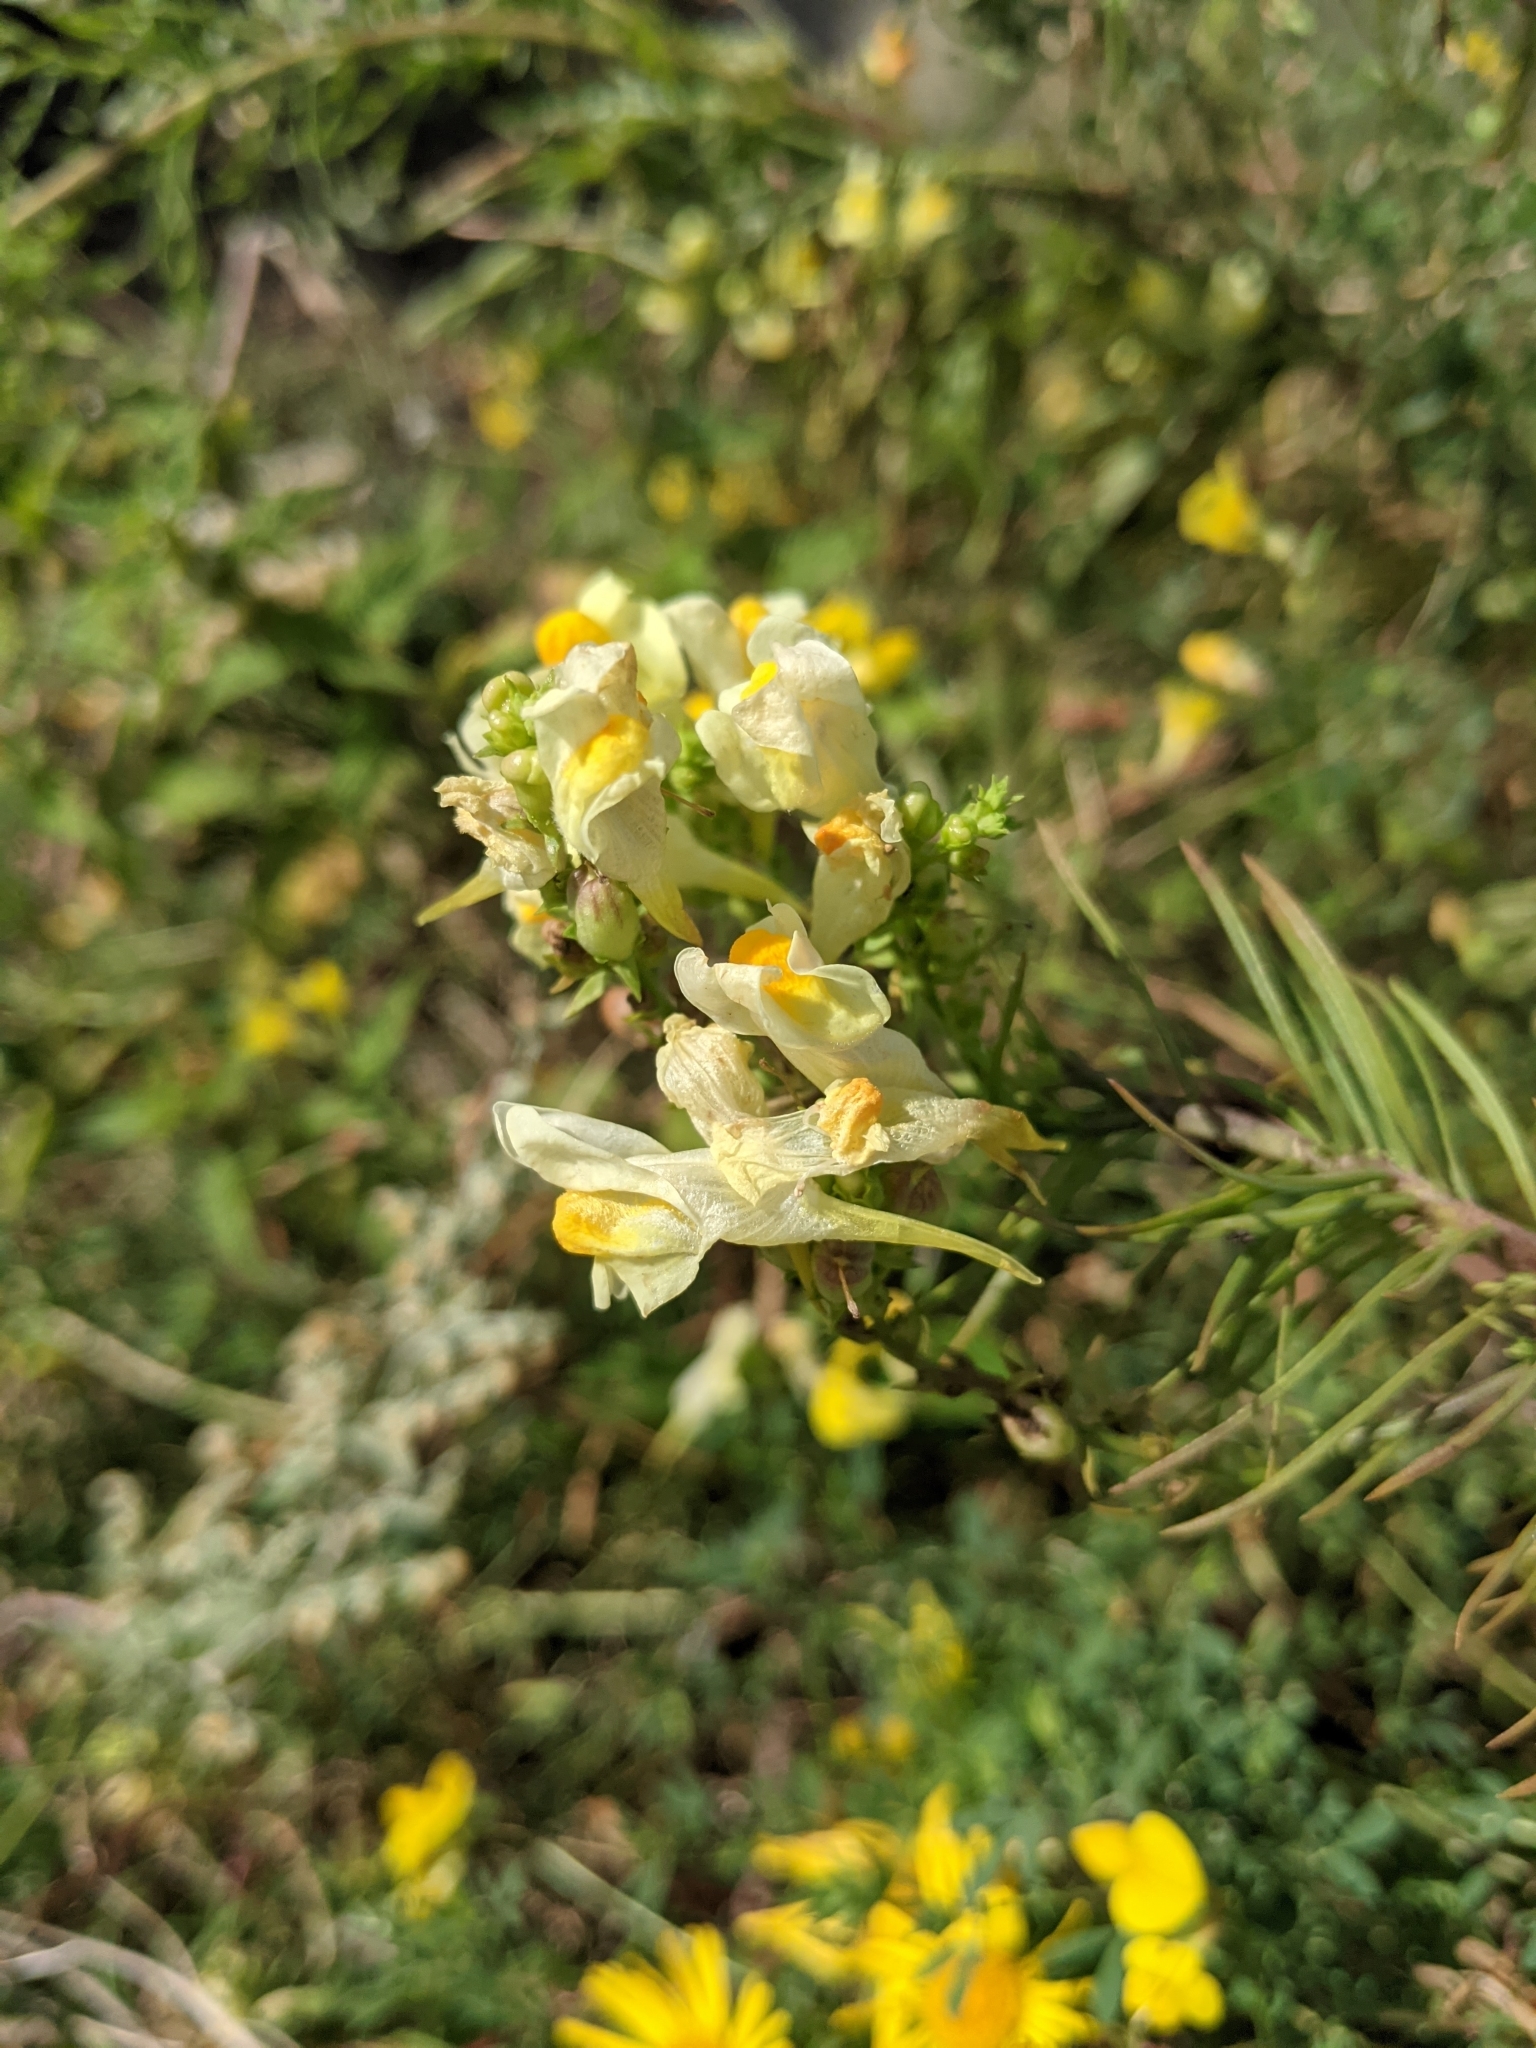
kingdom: Plantae
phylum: Tracheophyta
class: Magnoliopsida
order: Lamiales
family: Plantaginaceae
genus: Linaria
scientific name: Linaria vulgaris
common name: Butter and eggs
